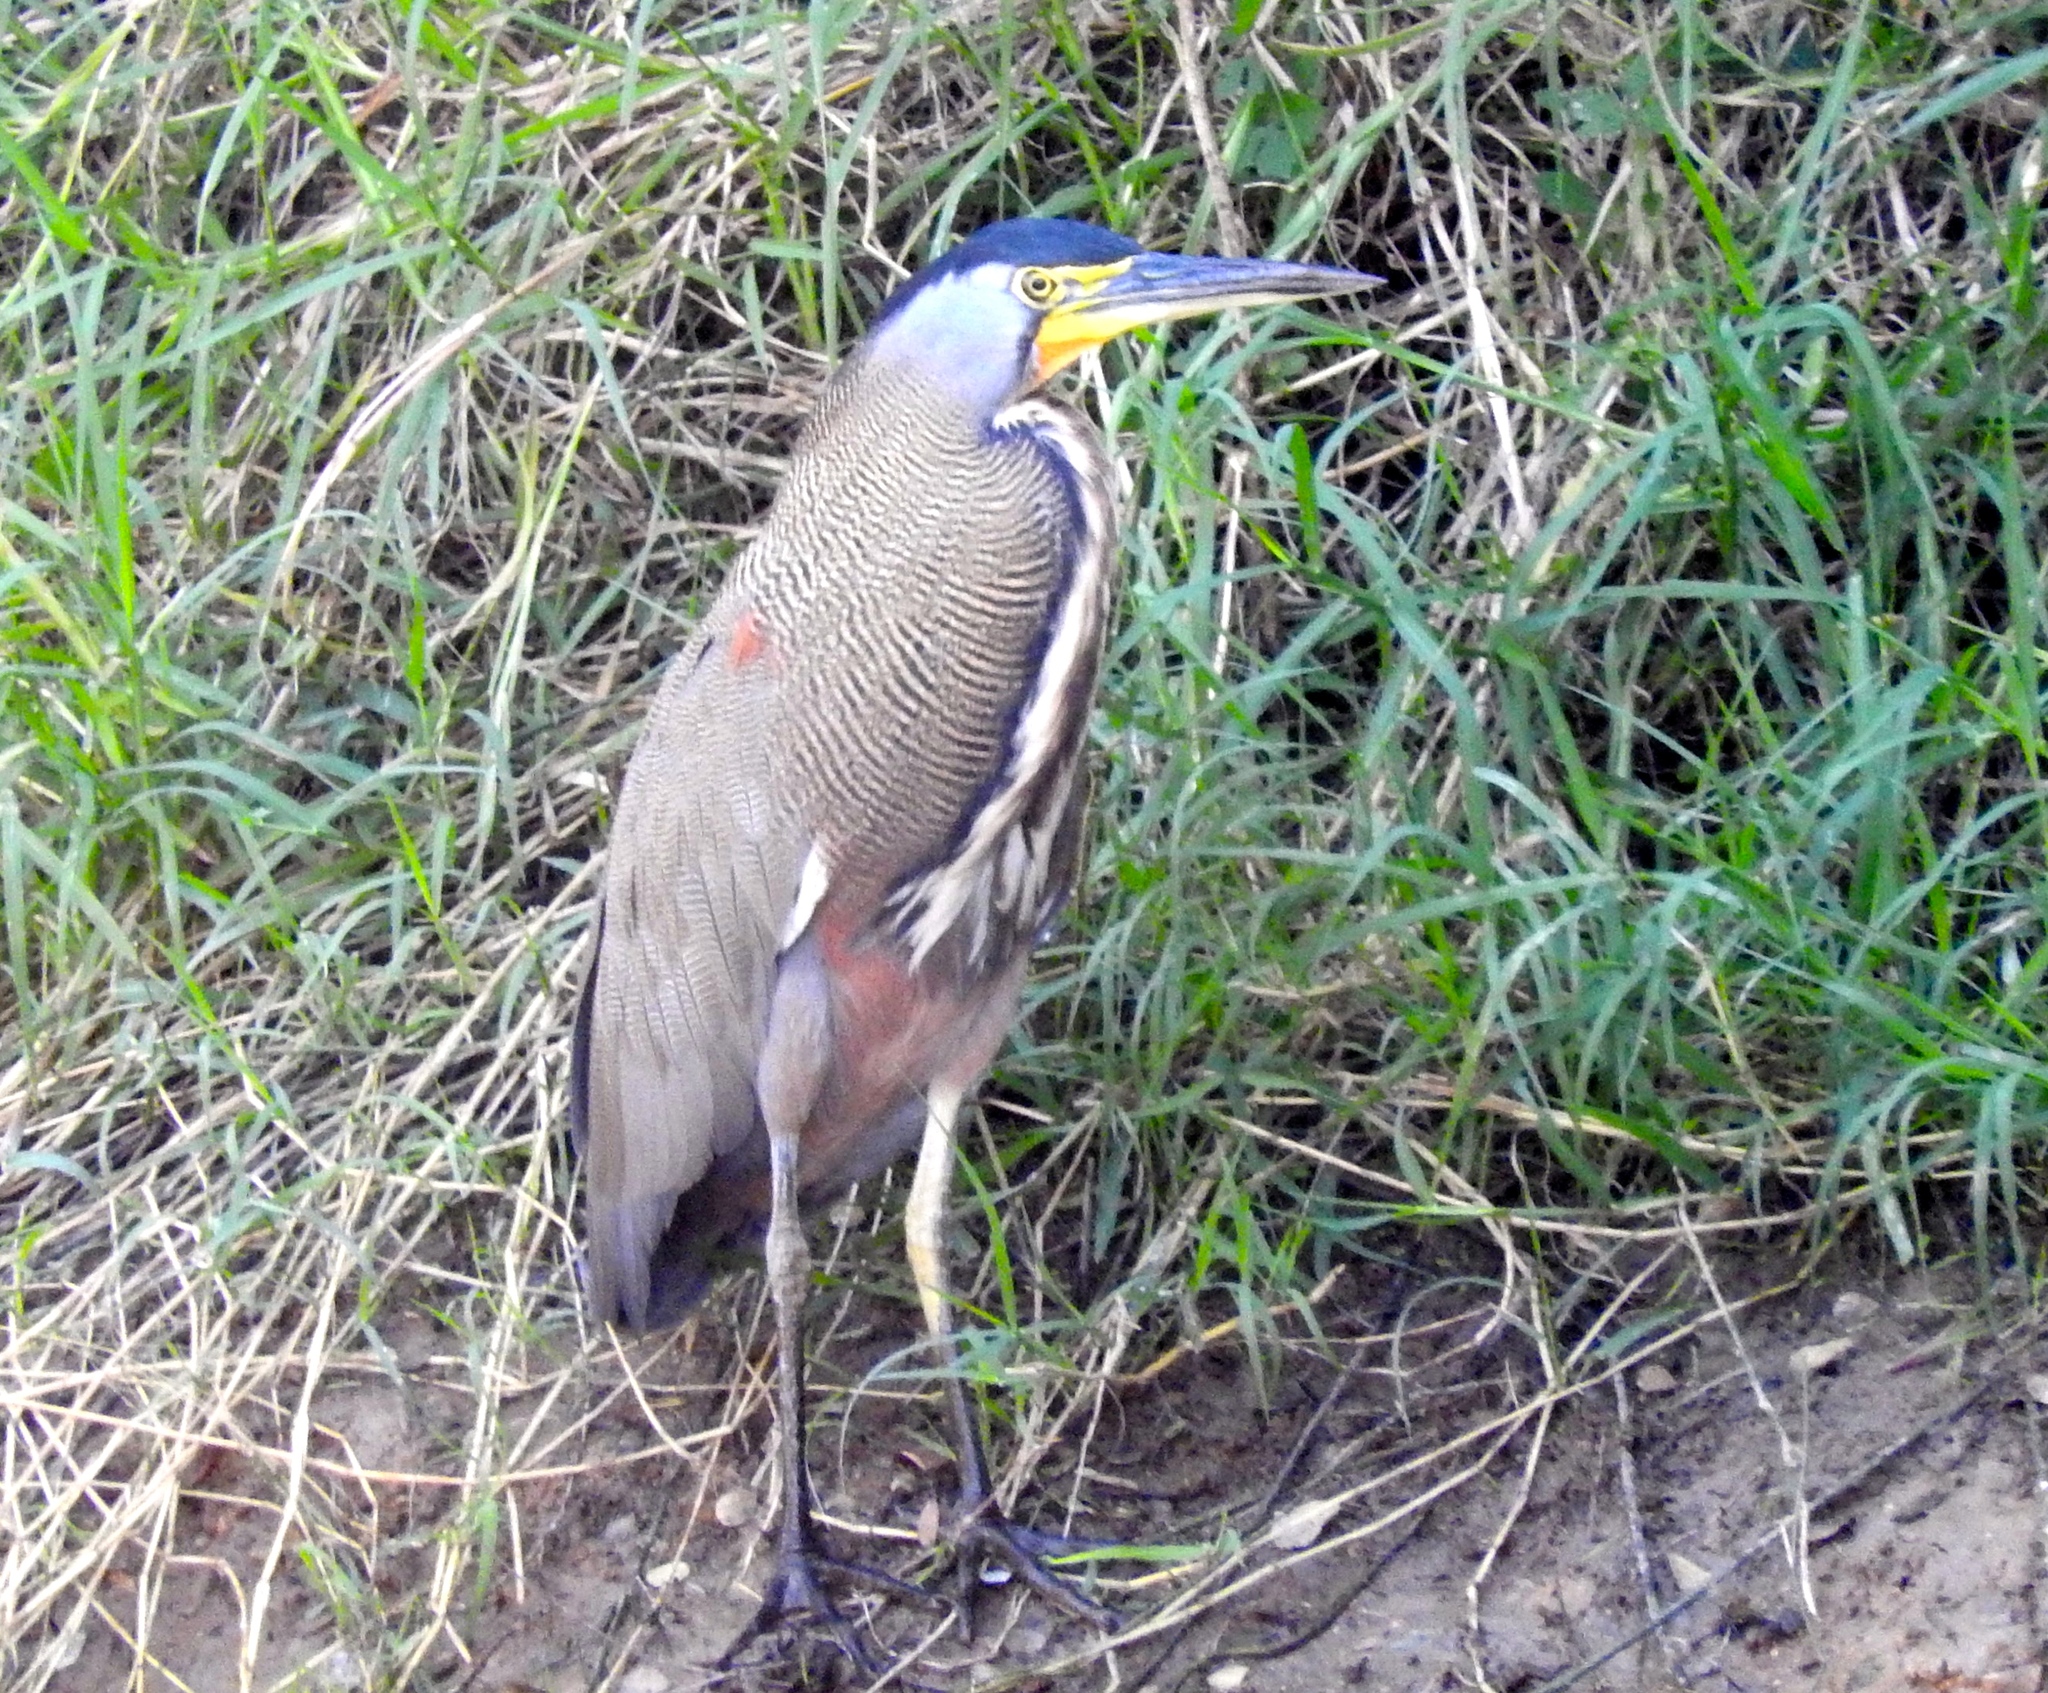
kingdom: Animalia
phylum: Chordata
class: Aves
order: Pelecaniformes
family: Ardeidae
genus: Tigrisoma
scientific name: Tigrisoma mexicanum
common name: Bare-throated tiger-heron
